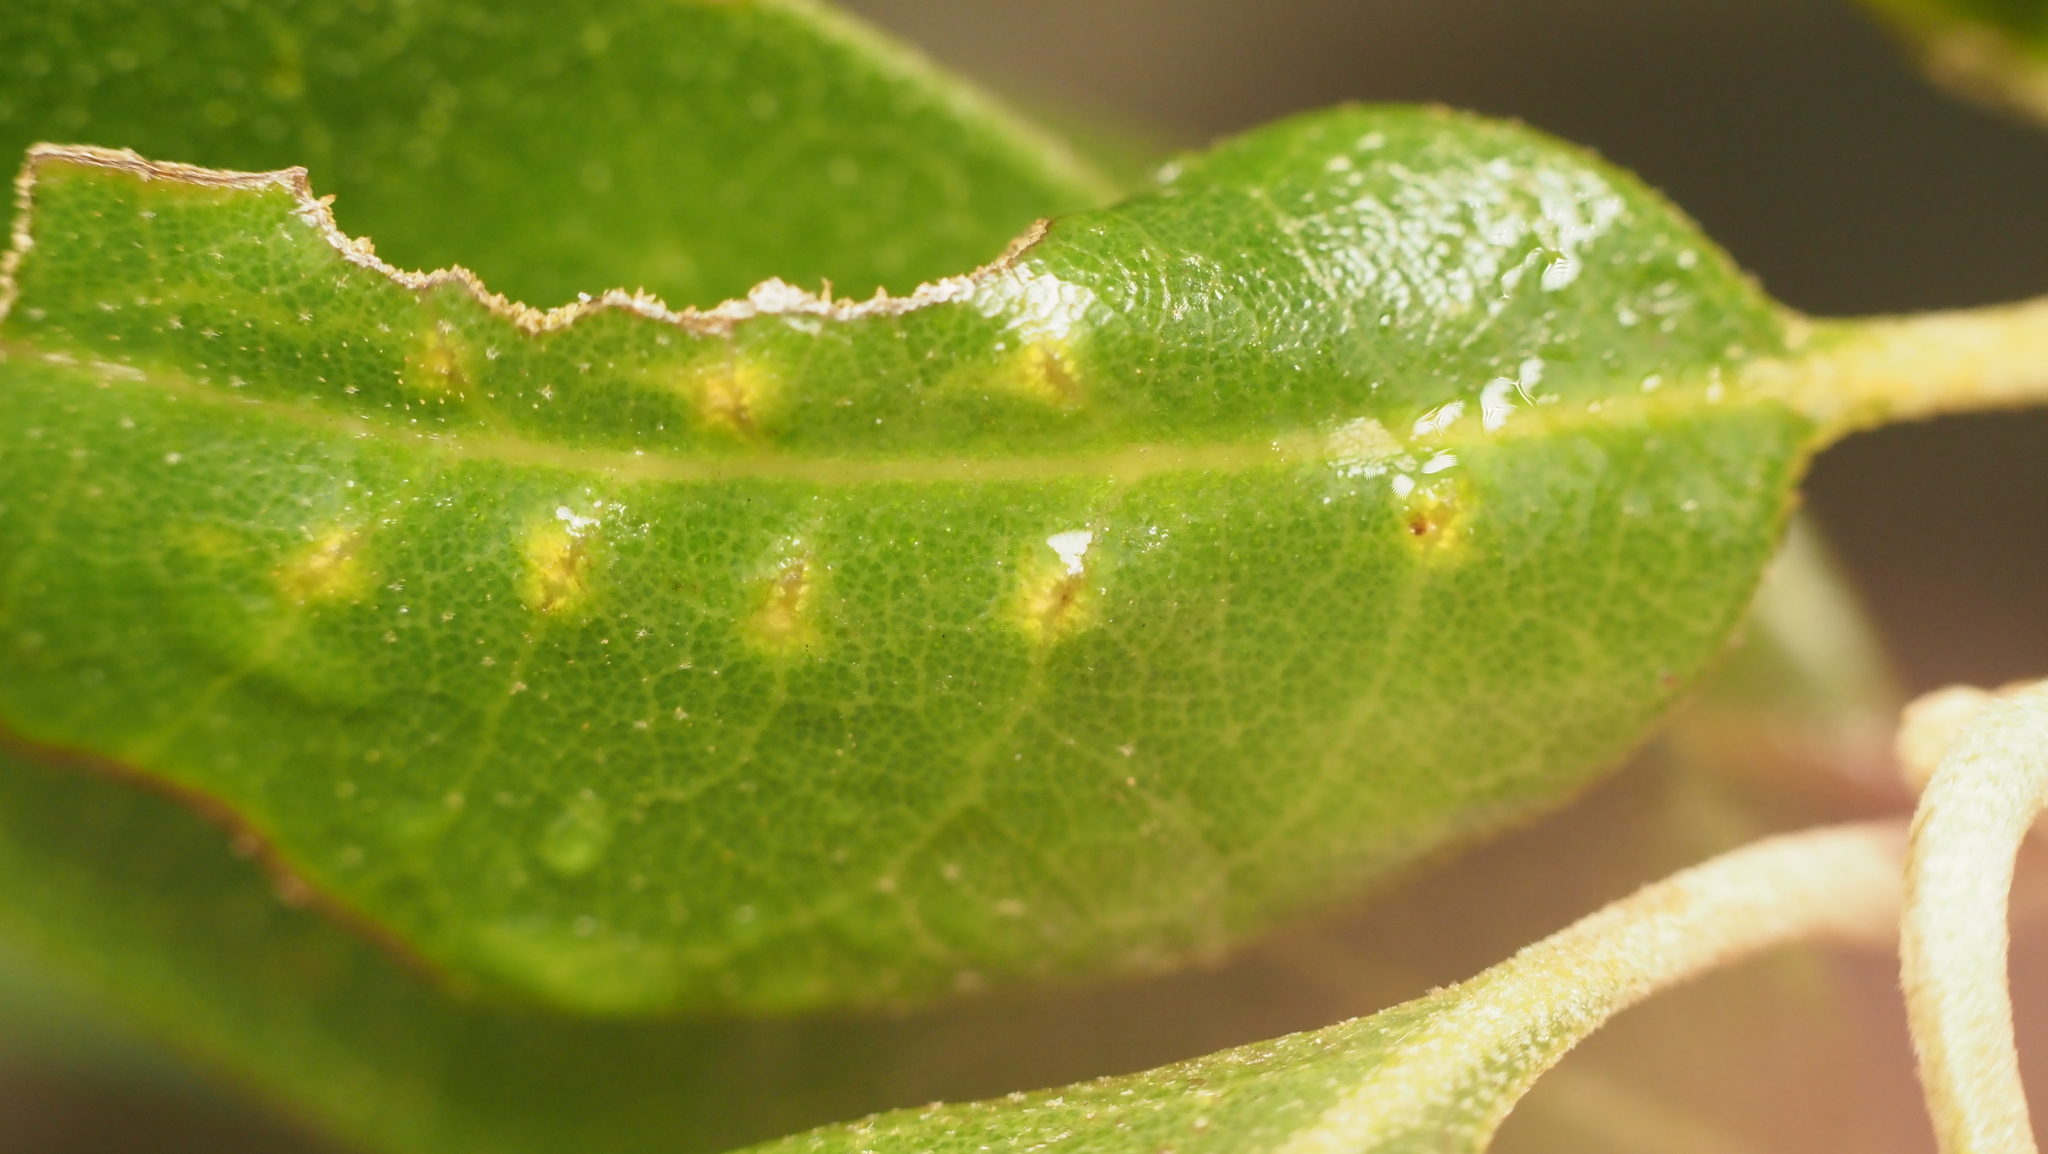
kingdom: Animalia
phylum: Arthropoda
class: Insecta
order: Hymenoptera
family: Cynipidae
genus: Belonocnema
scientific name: Belonocnema kinseyi
